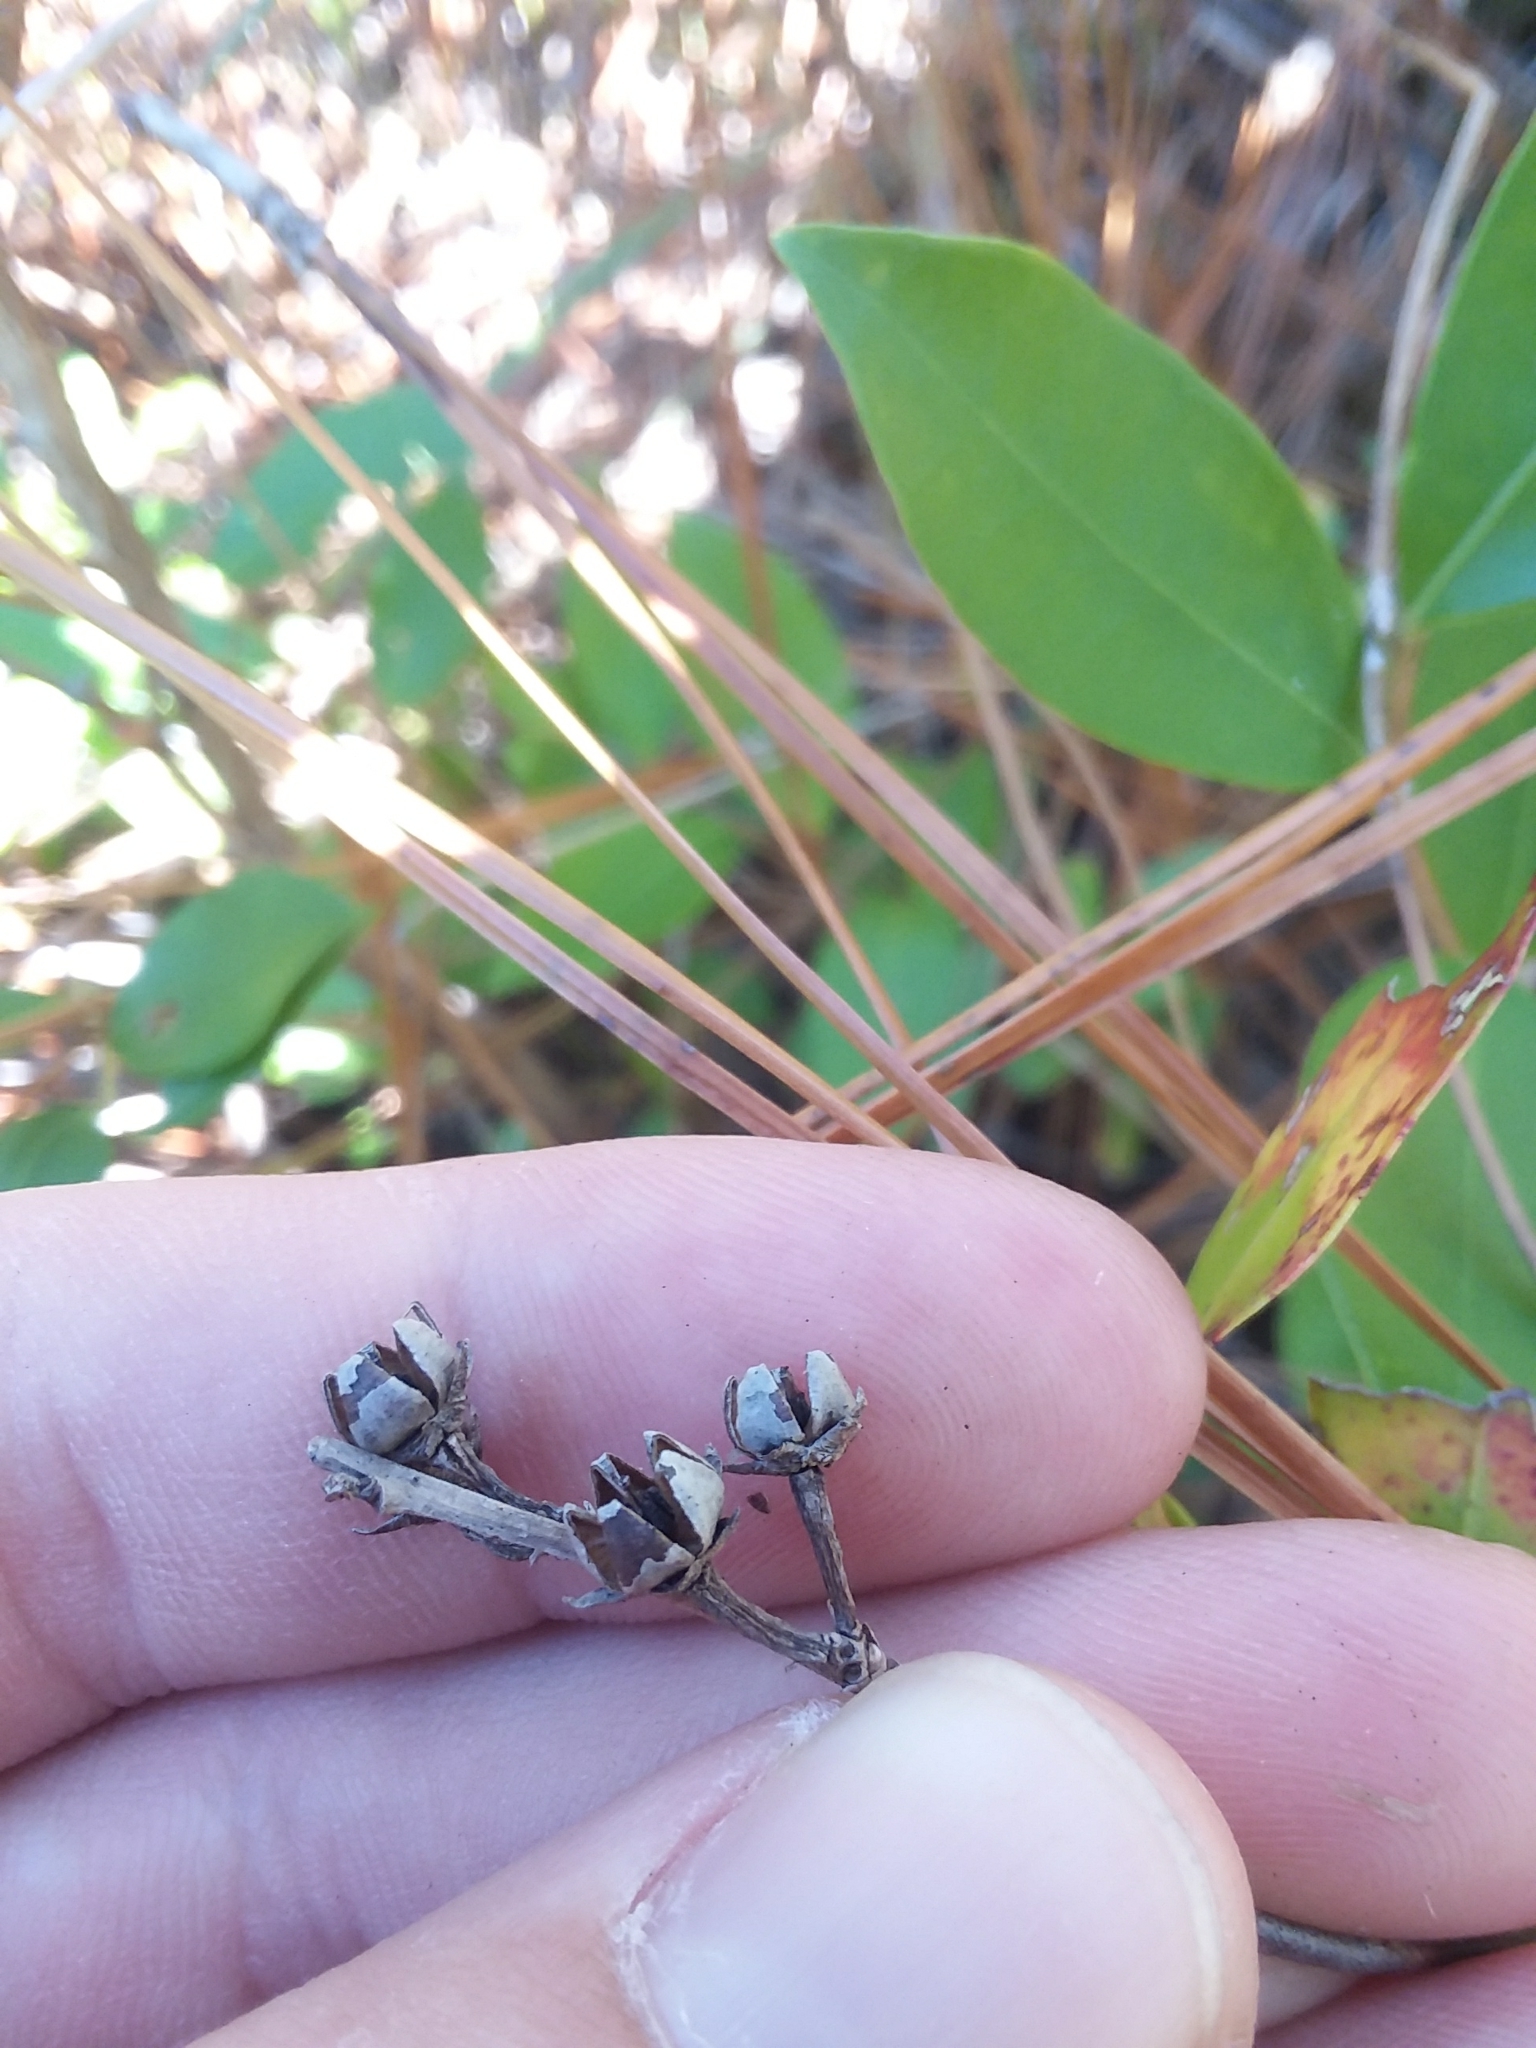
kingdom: Plantae
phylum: Tracheophyta
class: Magnoliopsida
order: Ericales
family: Ericaceae
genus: Lyonia
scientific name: Lyonia lucida
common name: Fetterbush
